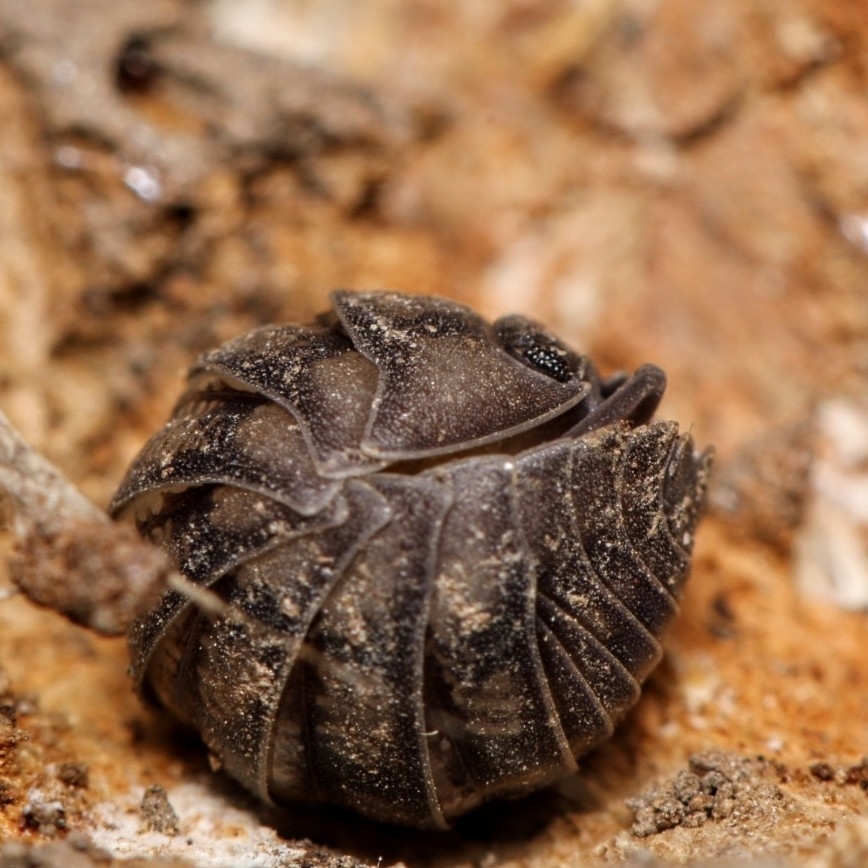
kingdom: Animalia
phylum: Arthropoda
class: Malacostraca
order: Isopoda
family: Armadillidiidae
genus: Armadillidium
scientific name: Armadillidium nasatum
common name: Isopod
